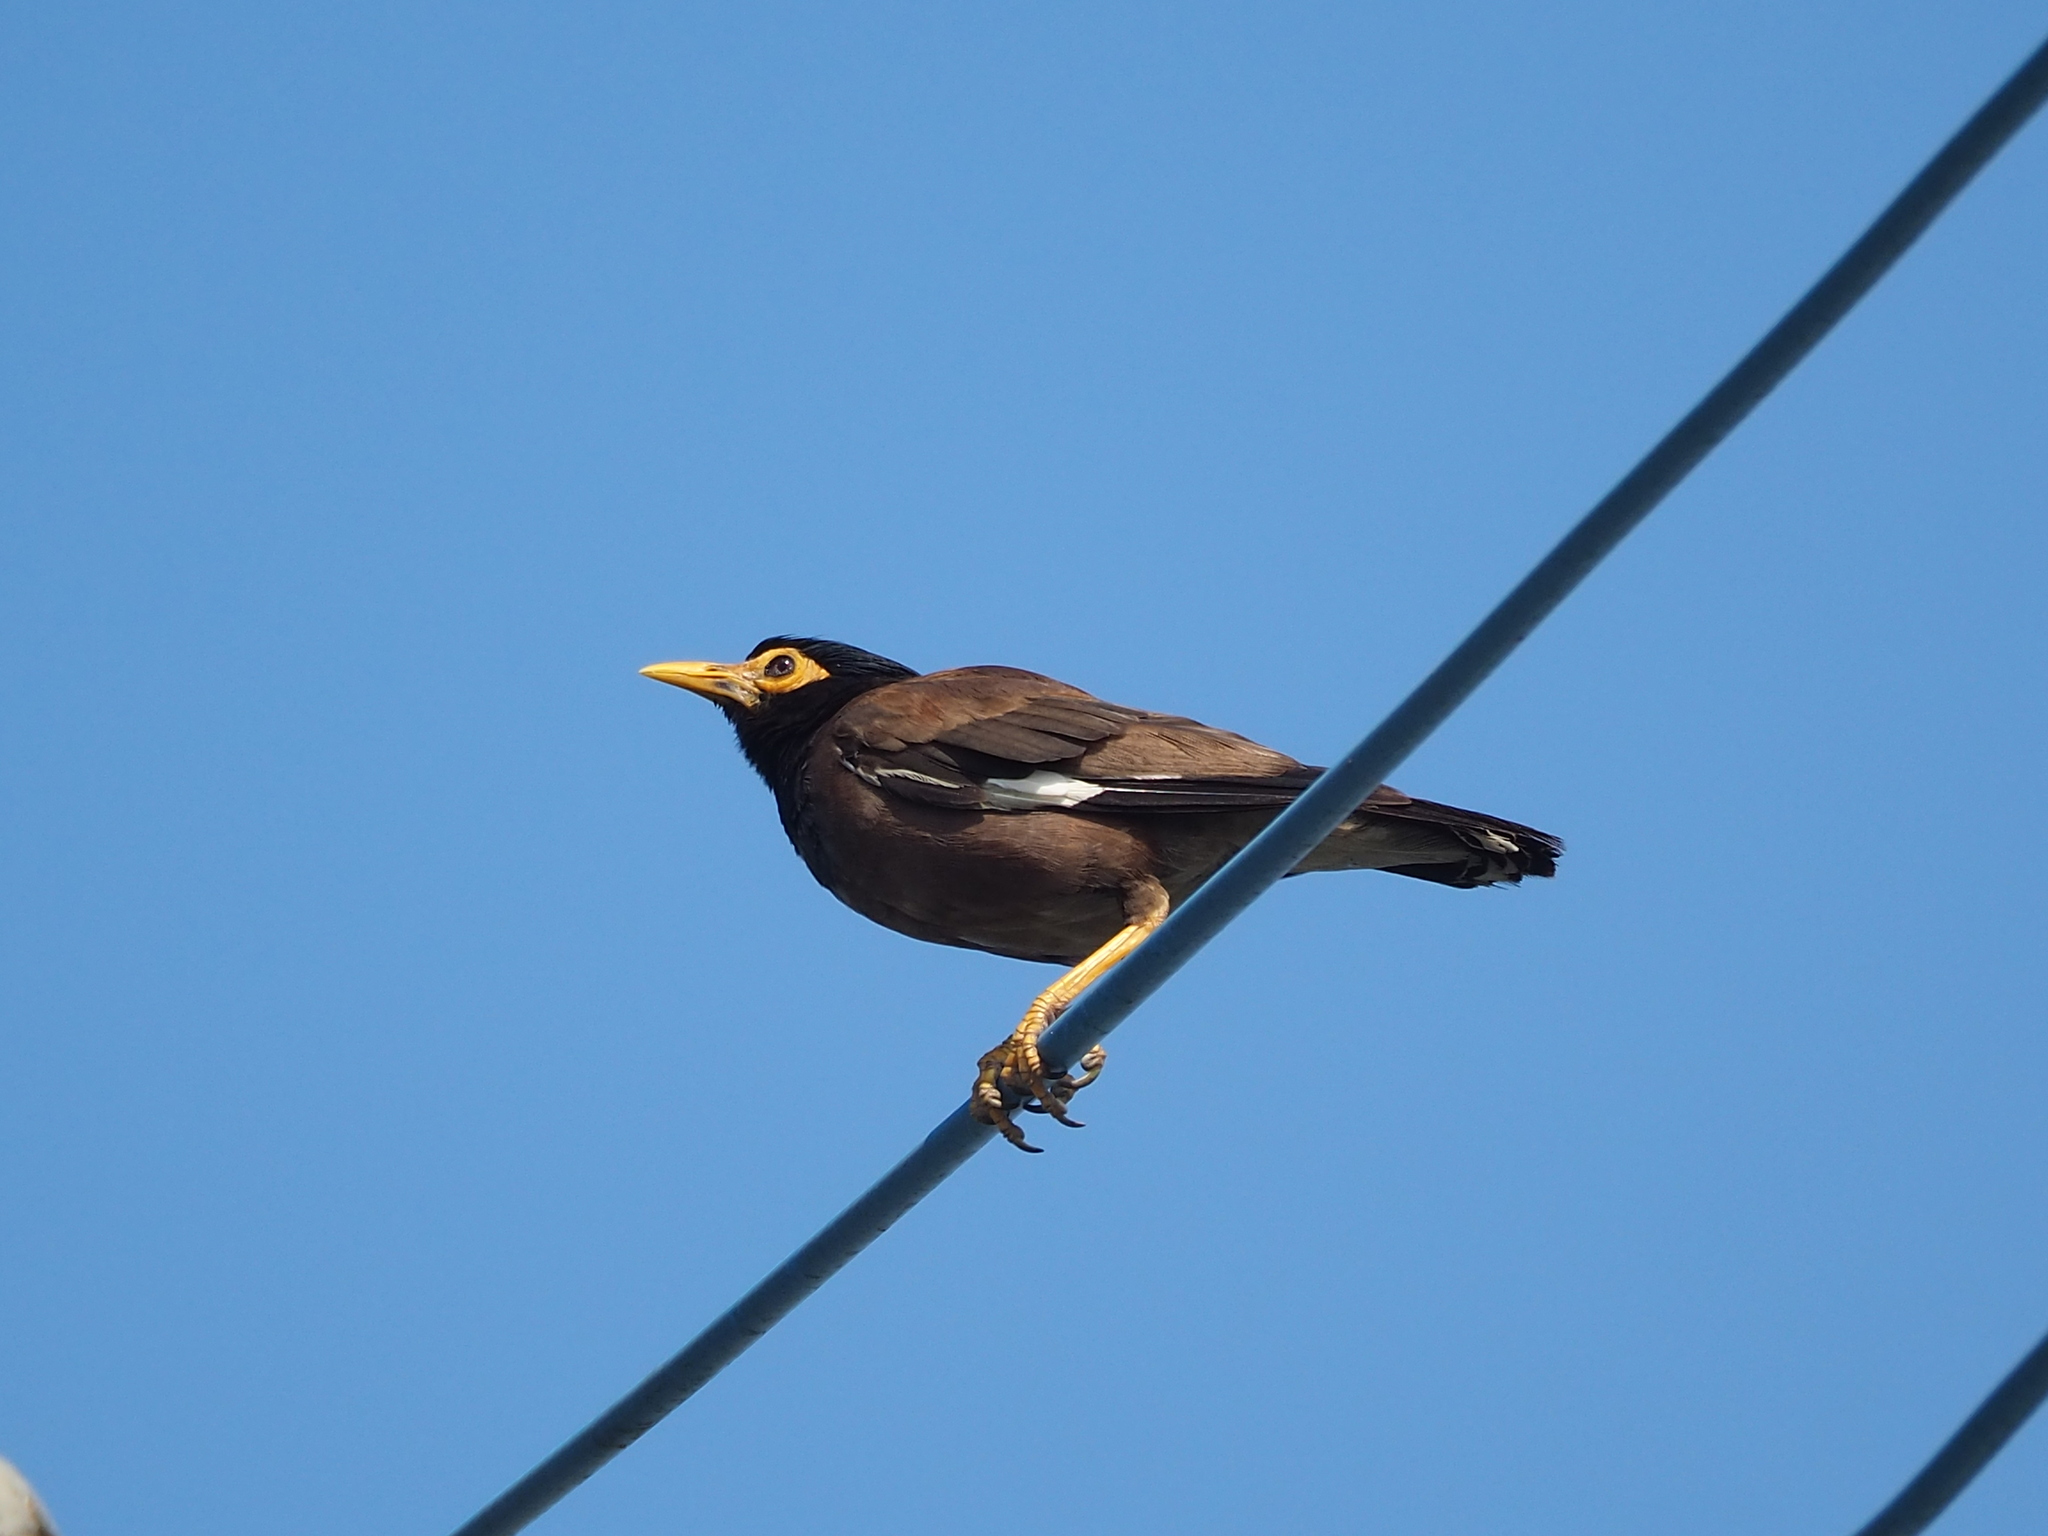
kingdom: Animalia
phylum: Chordata
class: Aves
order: Passeriformes
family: Sturnidae
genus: Acridotheres
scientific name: Acridotheres tristis
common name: Common myna
